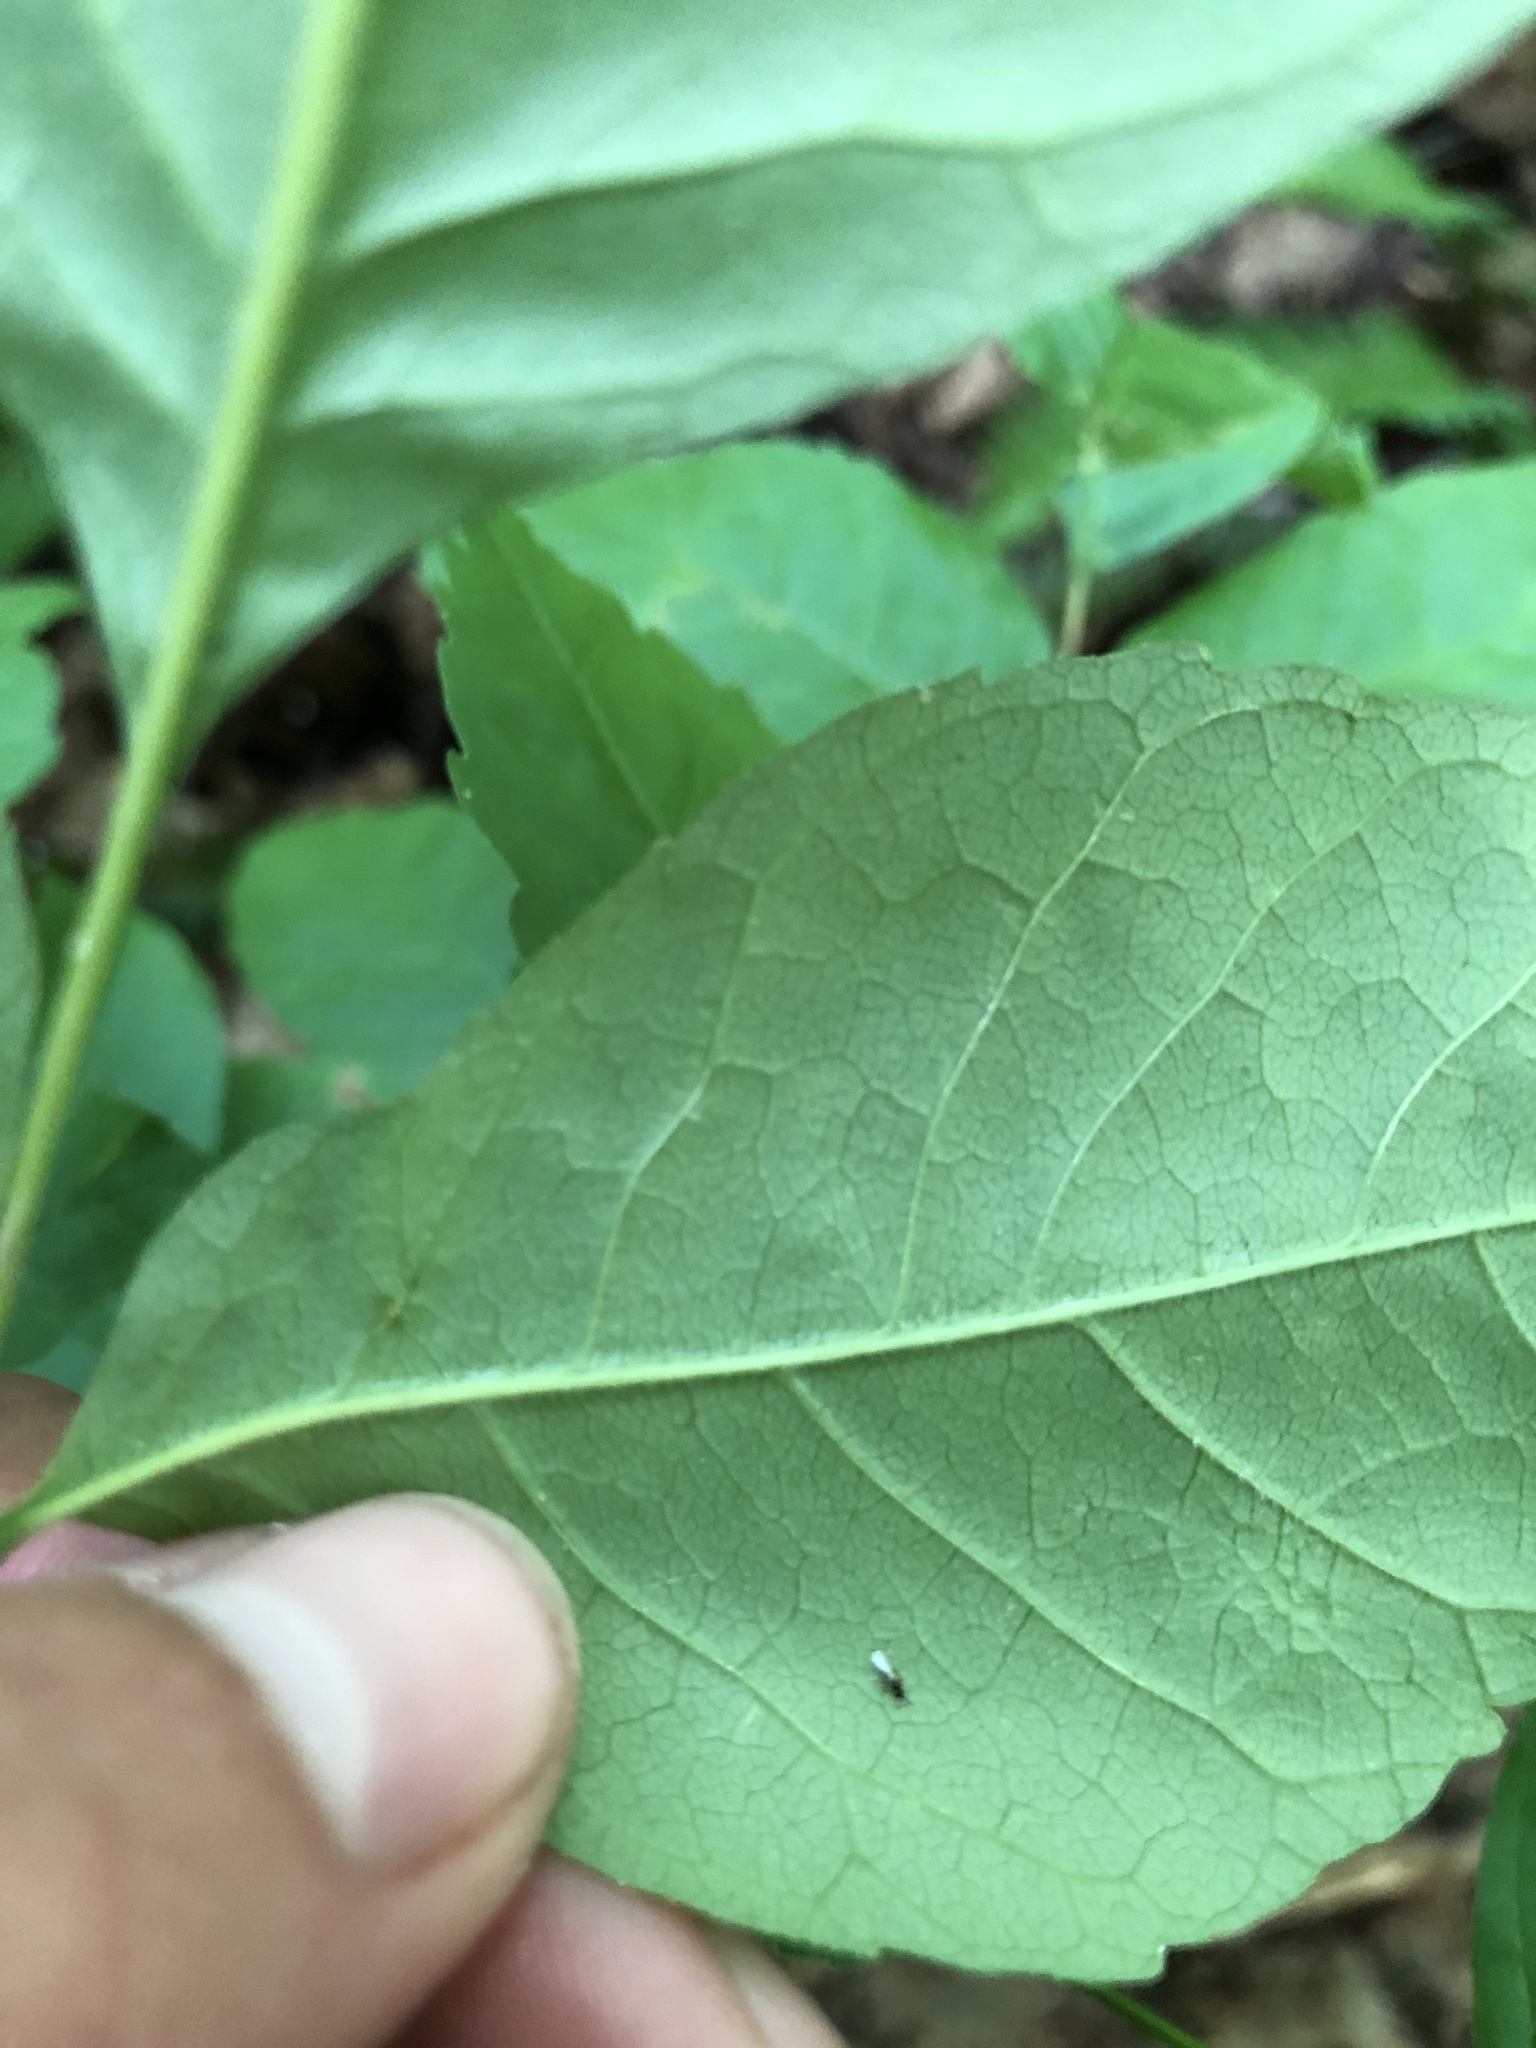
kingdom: Plantae
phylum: Tracheophyta
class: Magnoliopsida
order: Lamiales
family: Oleaceae
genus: Fraxinus
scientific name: Fraxinus americana
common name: White ash
